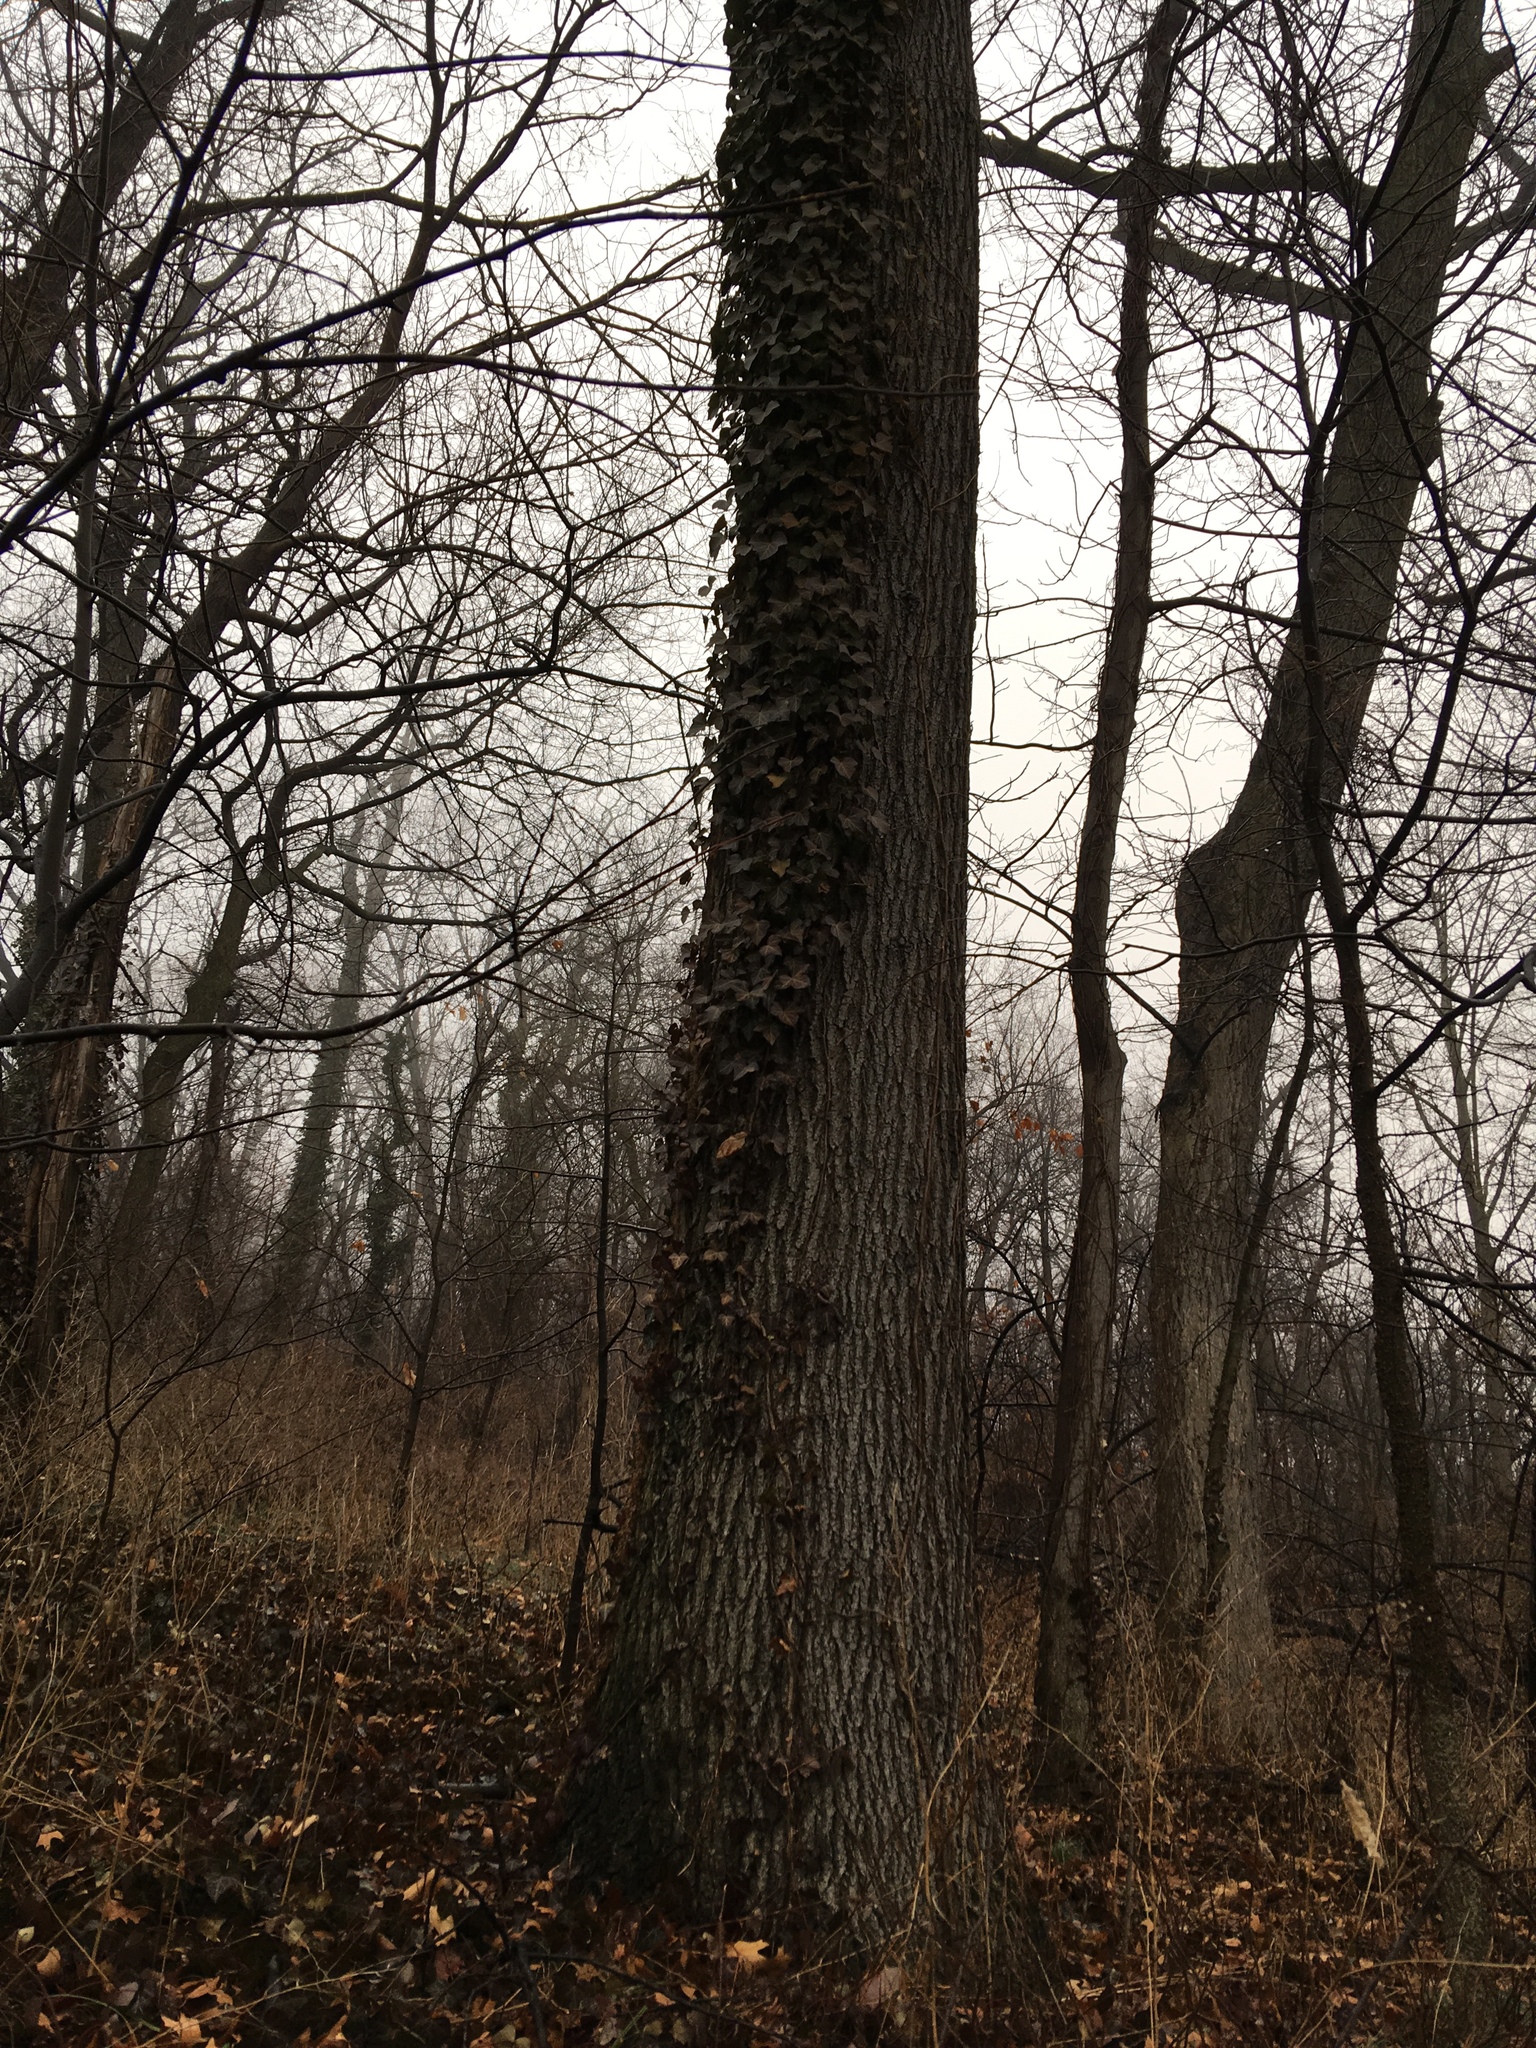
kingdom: Plantae
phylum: Tracheophyta
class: Magnoliopsida
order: Apiales
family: Araliaceae
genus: Hedera
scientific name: Hedera helix
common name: Ivy
